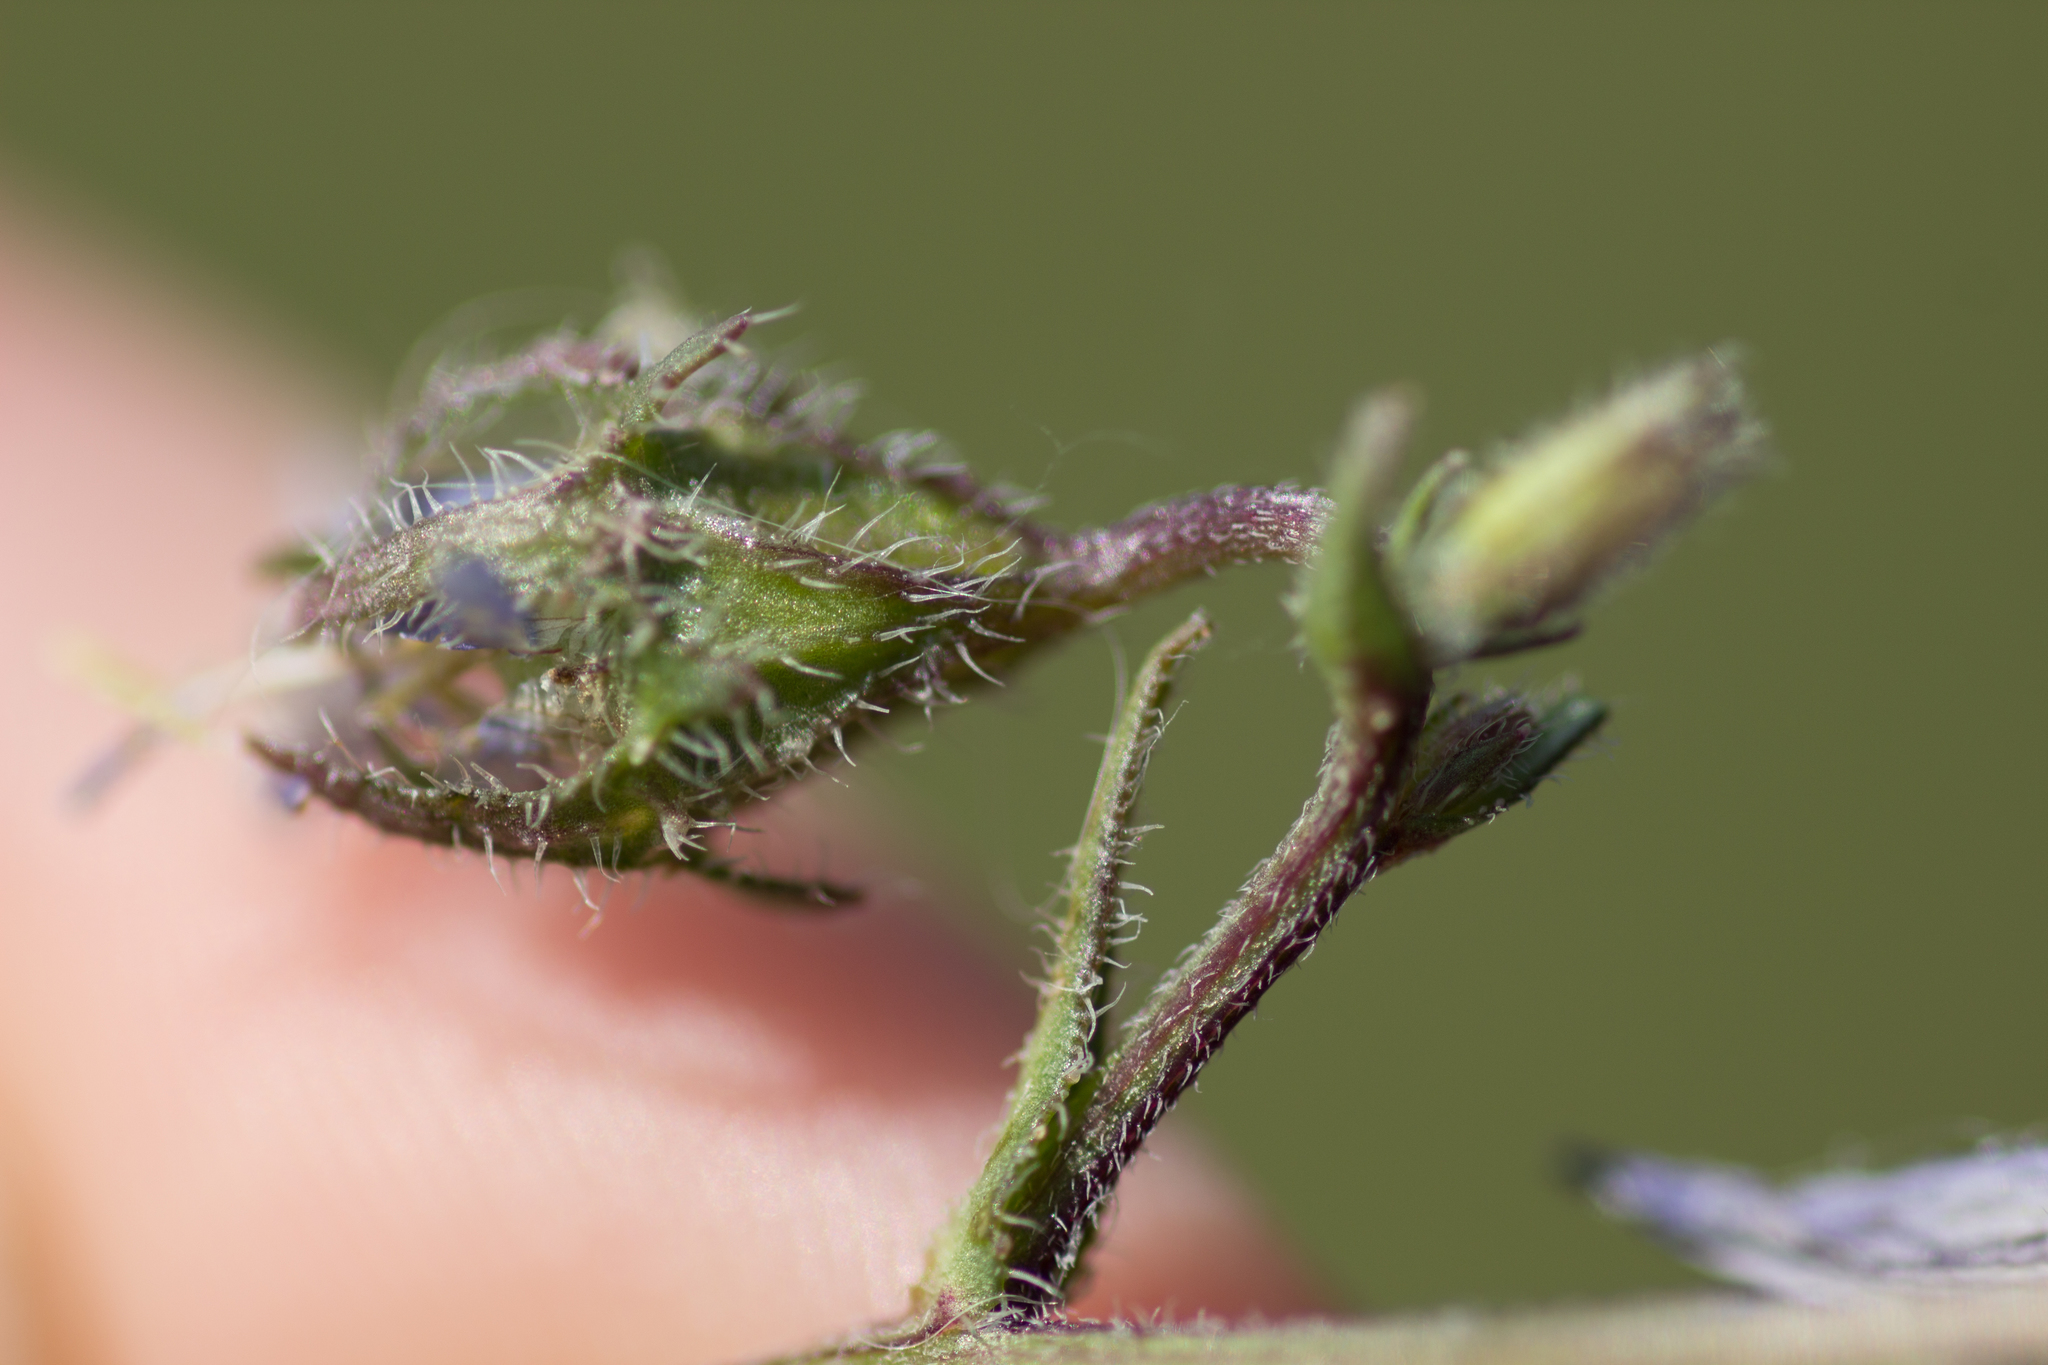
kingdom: Plantae
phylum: Tracheophyta
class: Magnoliopsida
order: Asterales
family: Campanulaceae
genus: Campanula
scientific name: Campanula sibirica
